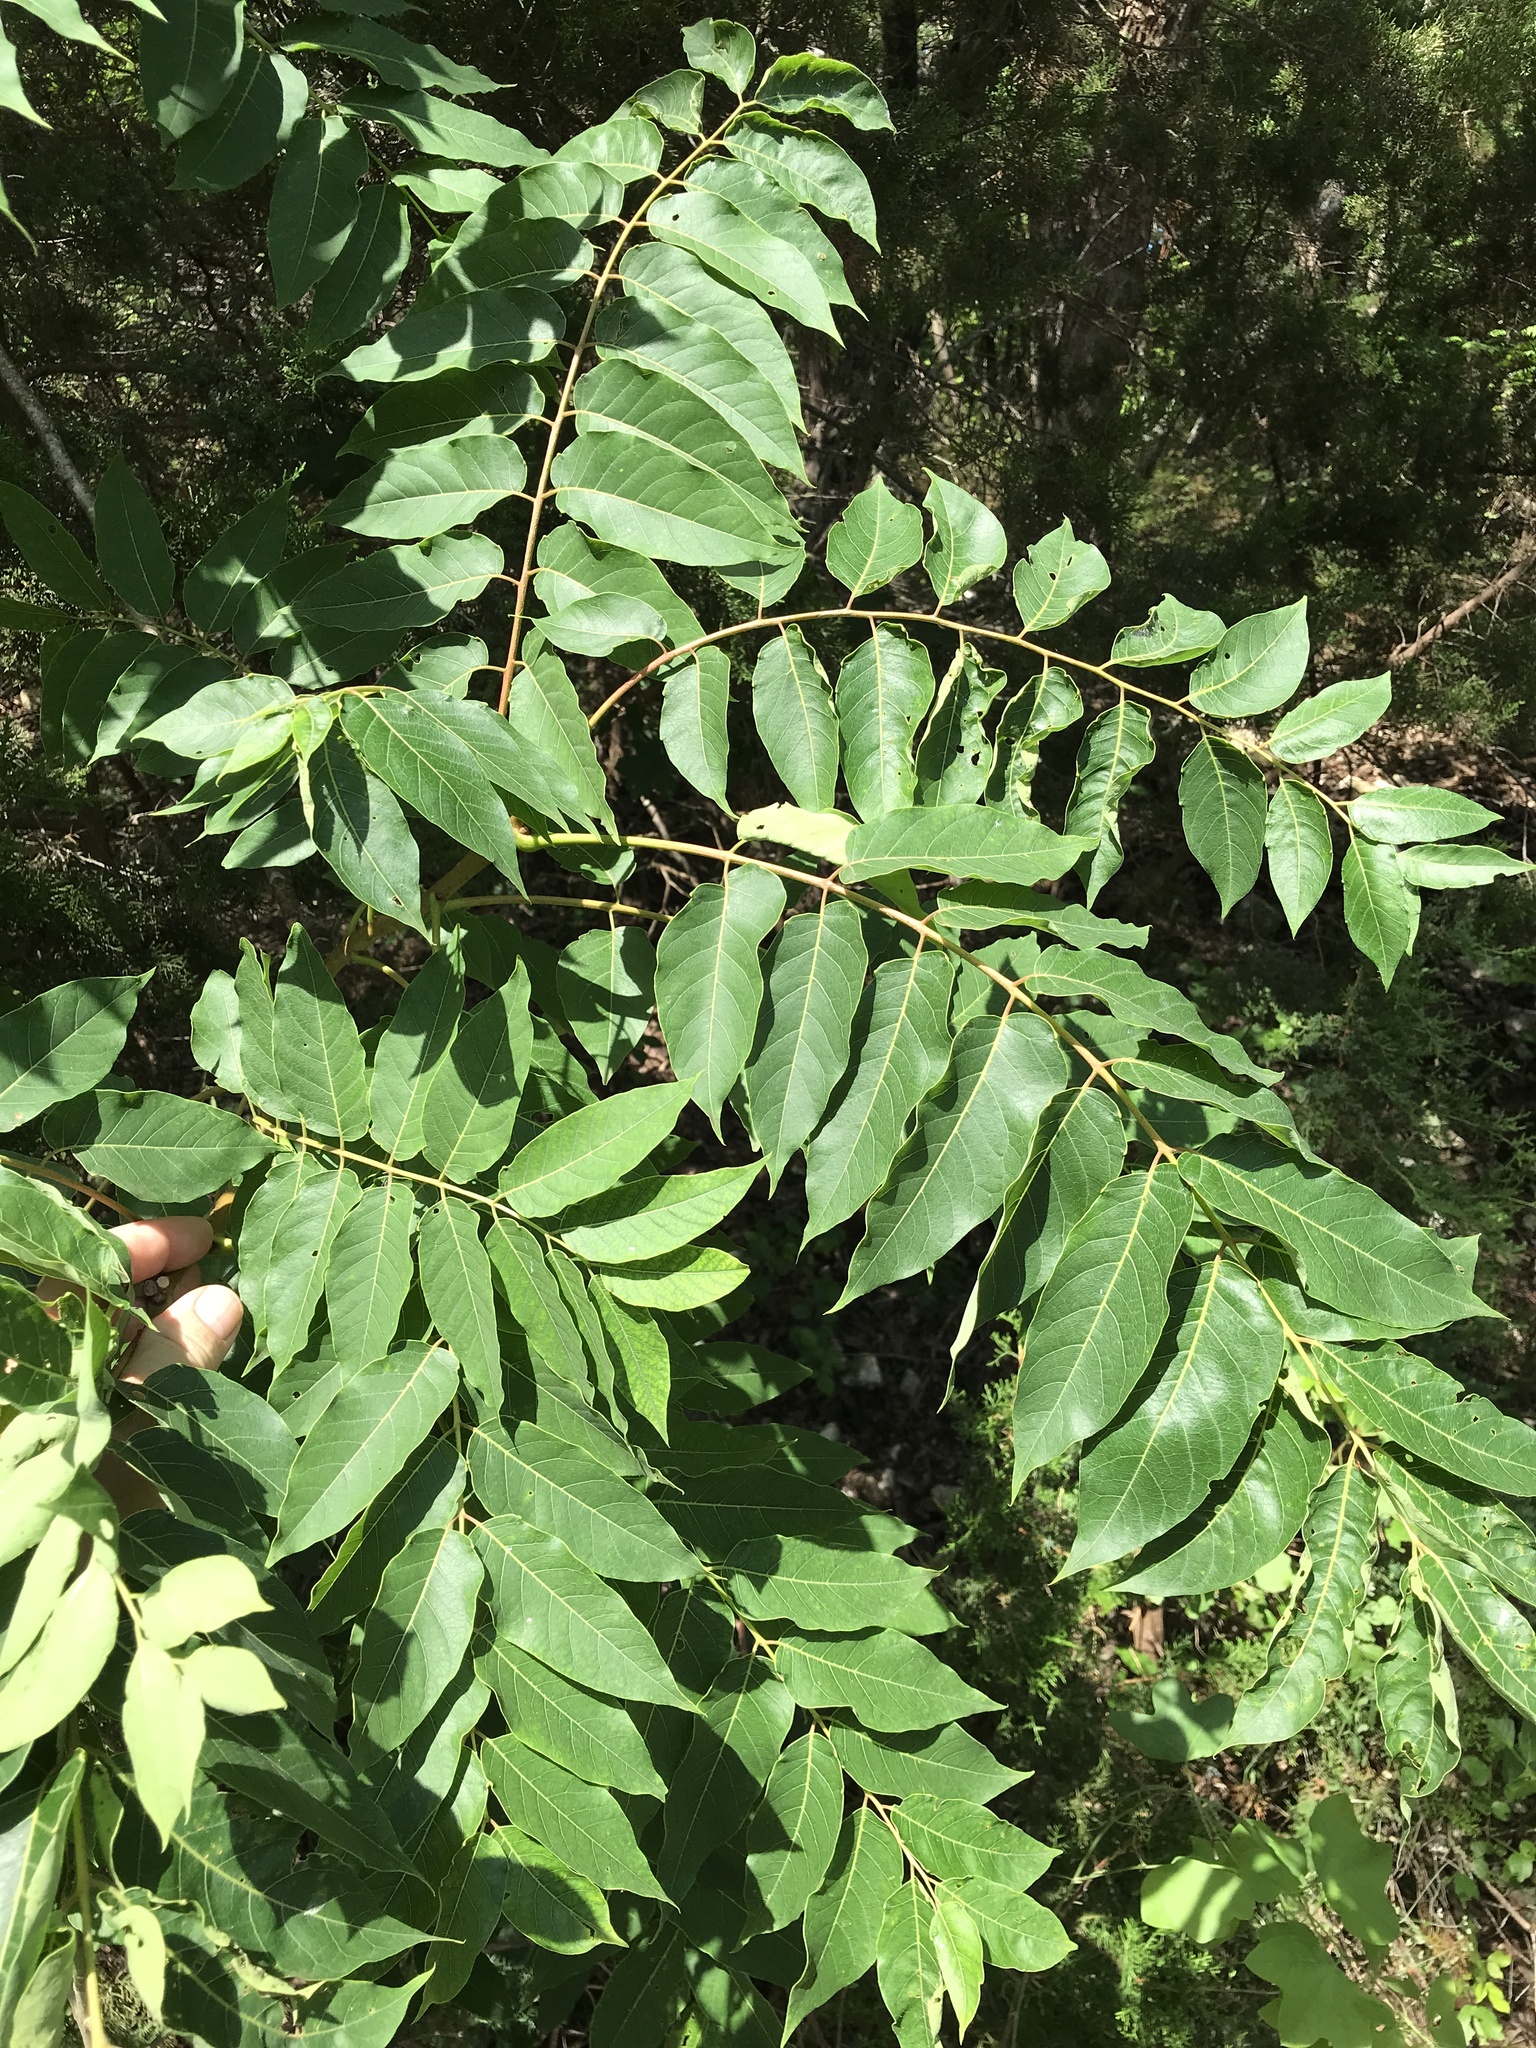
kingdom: Plantae
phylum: Tracheophyta
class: Magnoliopsida
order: Sapindales
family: Simaroubaceae
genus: Ailanthus
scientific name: Ailanthus altissima
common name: Tree-of-heaven
